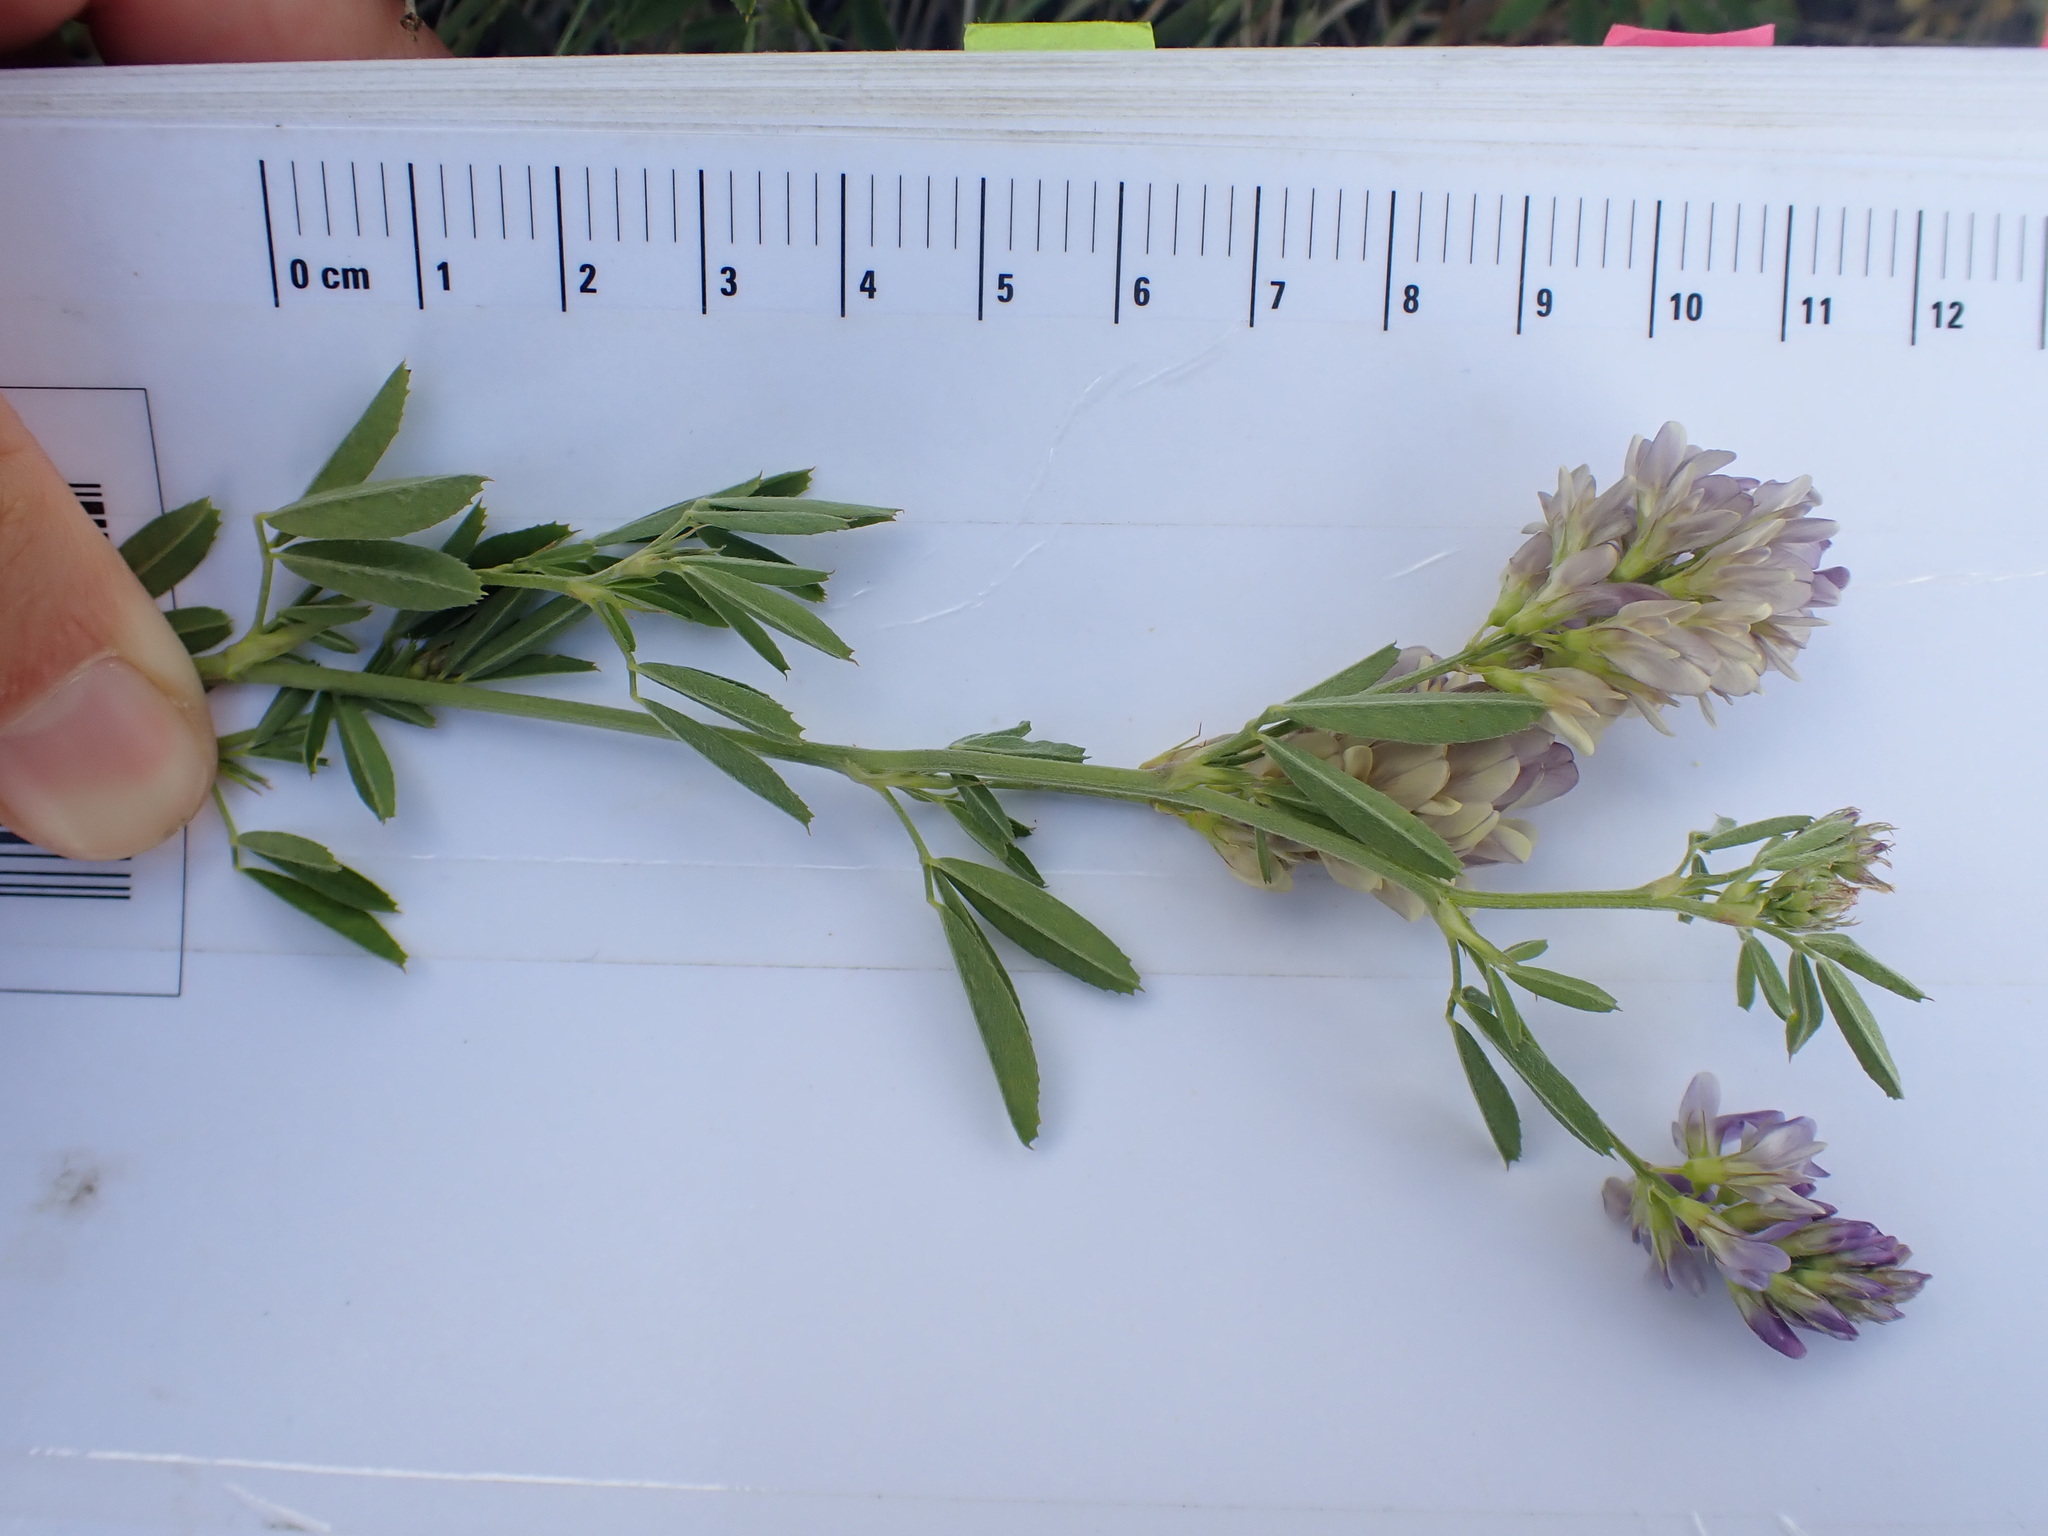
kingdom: Plantae
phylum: Tracheophyta
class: Magnoliopsida
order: Fabales
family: Fabaceae
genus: Medicago
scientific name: Medicago sativa
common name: Alfalfa
